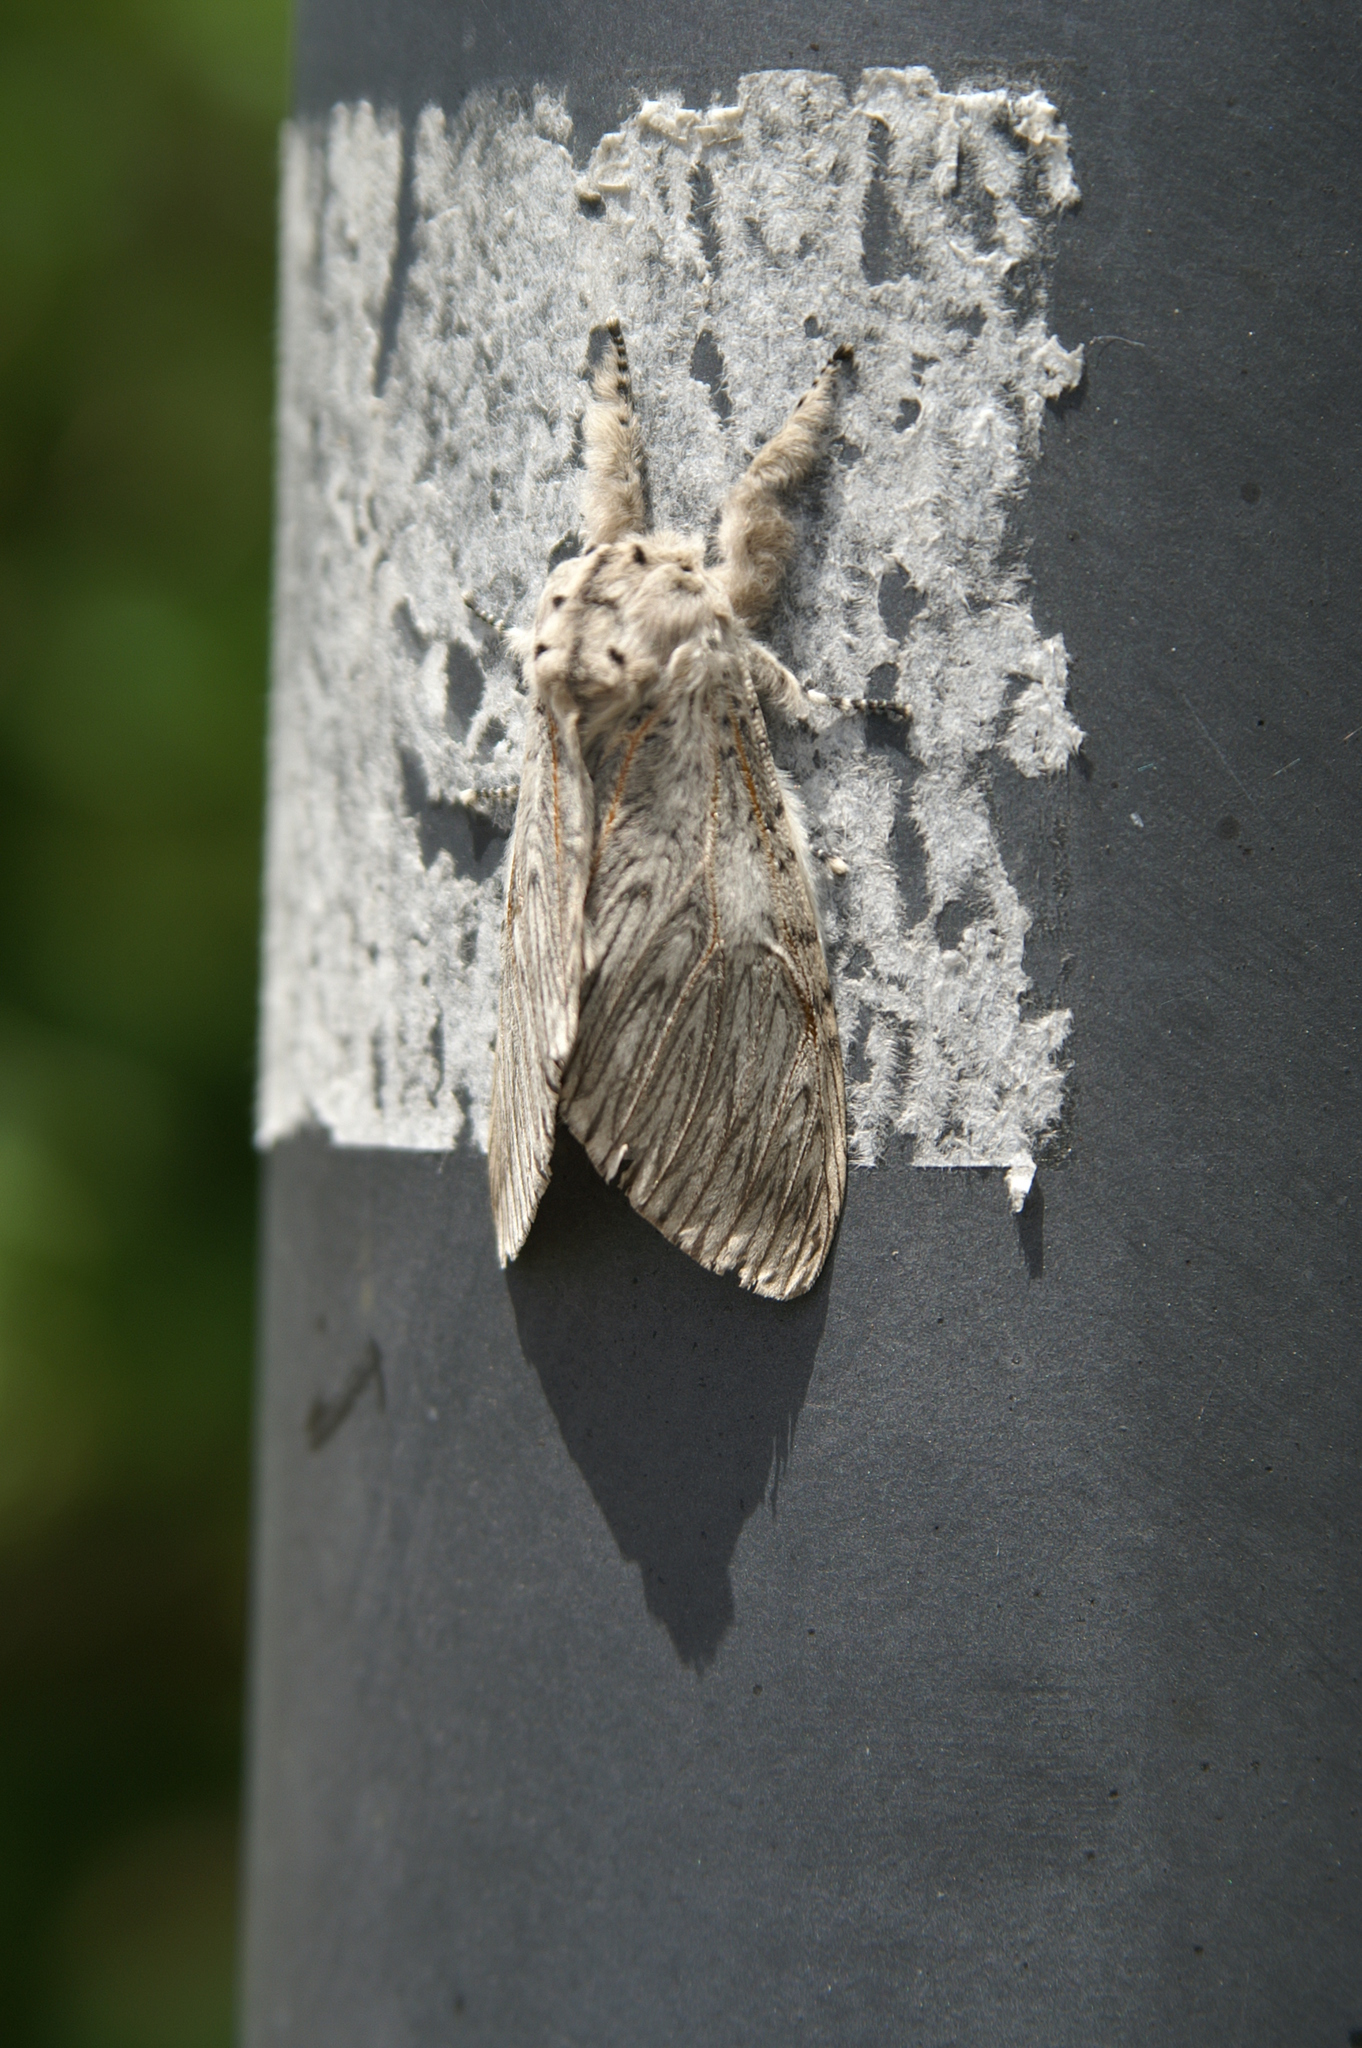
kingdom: Animalia
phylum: Arthropoda
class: Insecta
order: Lepidoptera
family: Notodontidae
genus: Cerura
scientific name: Cerura iberica
